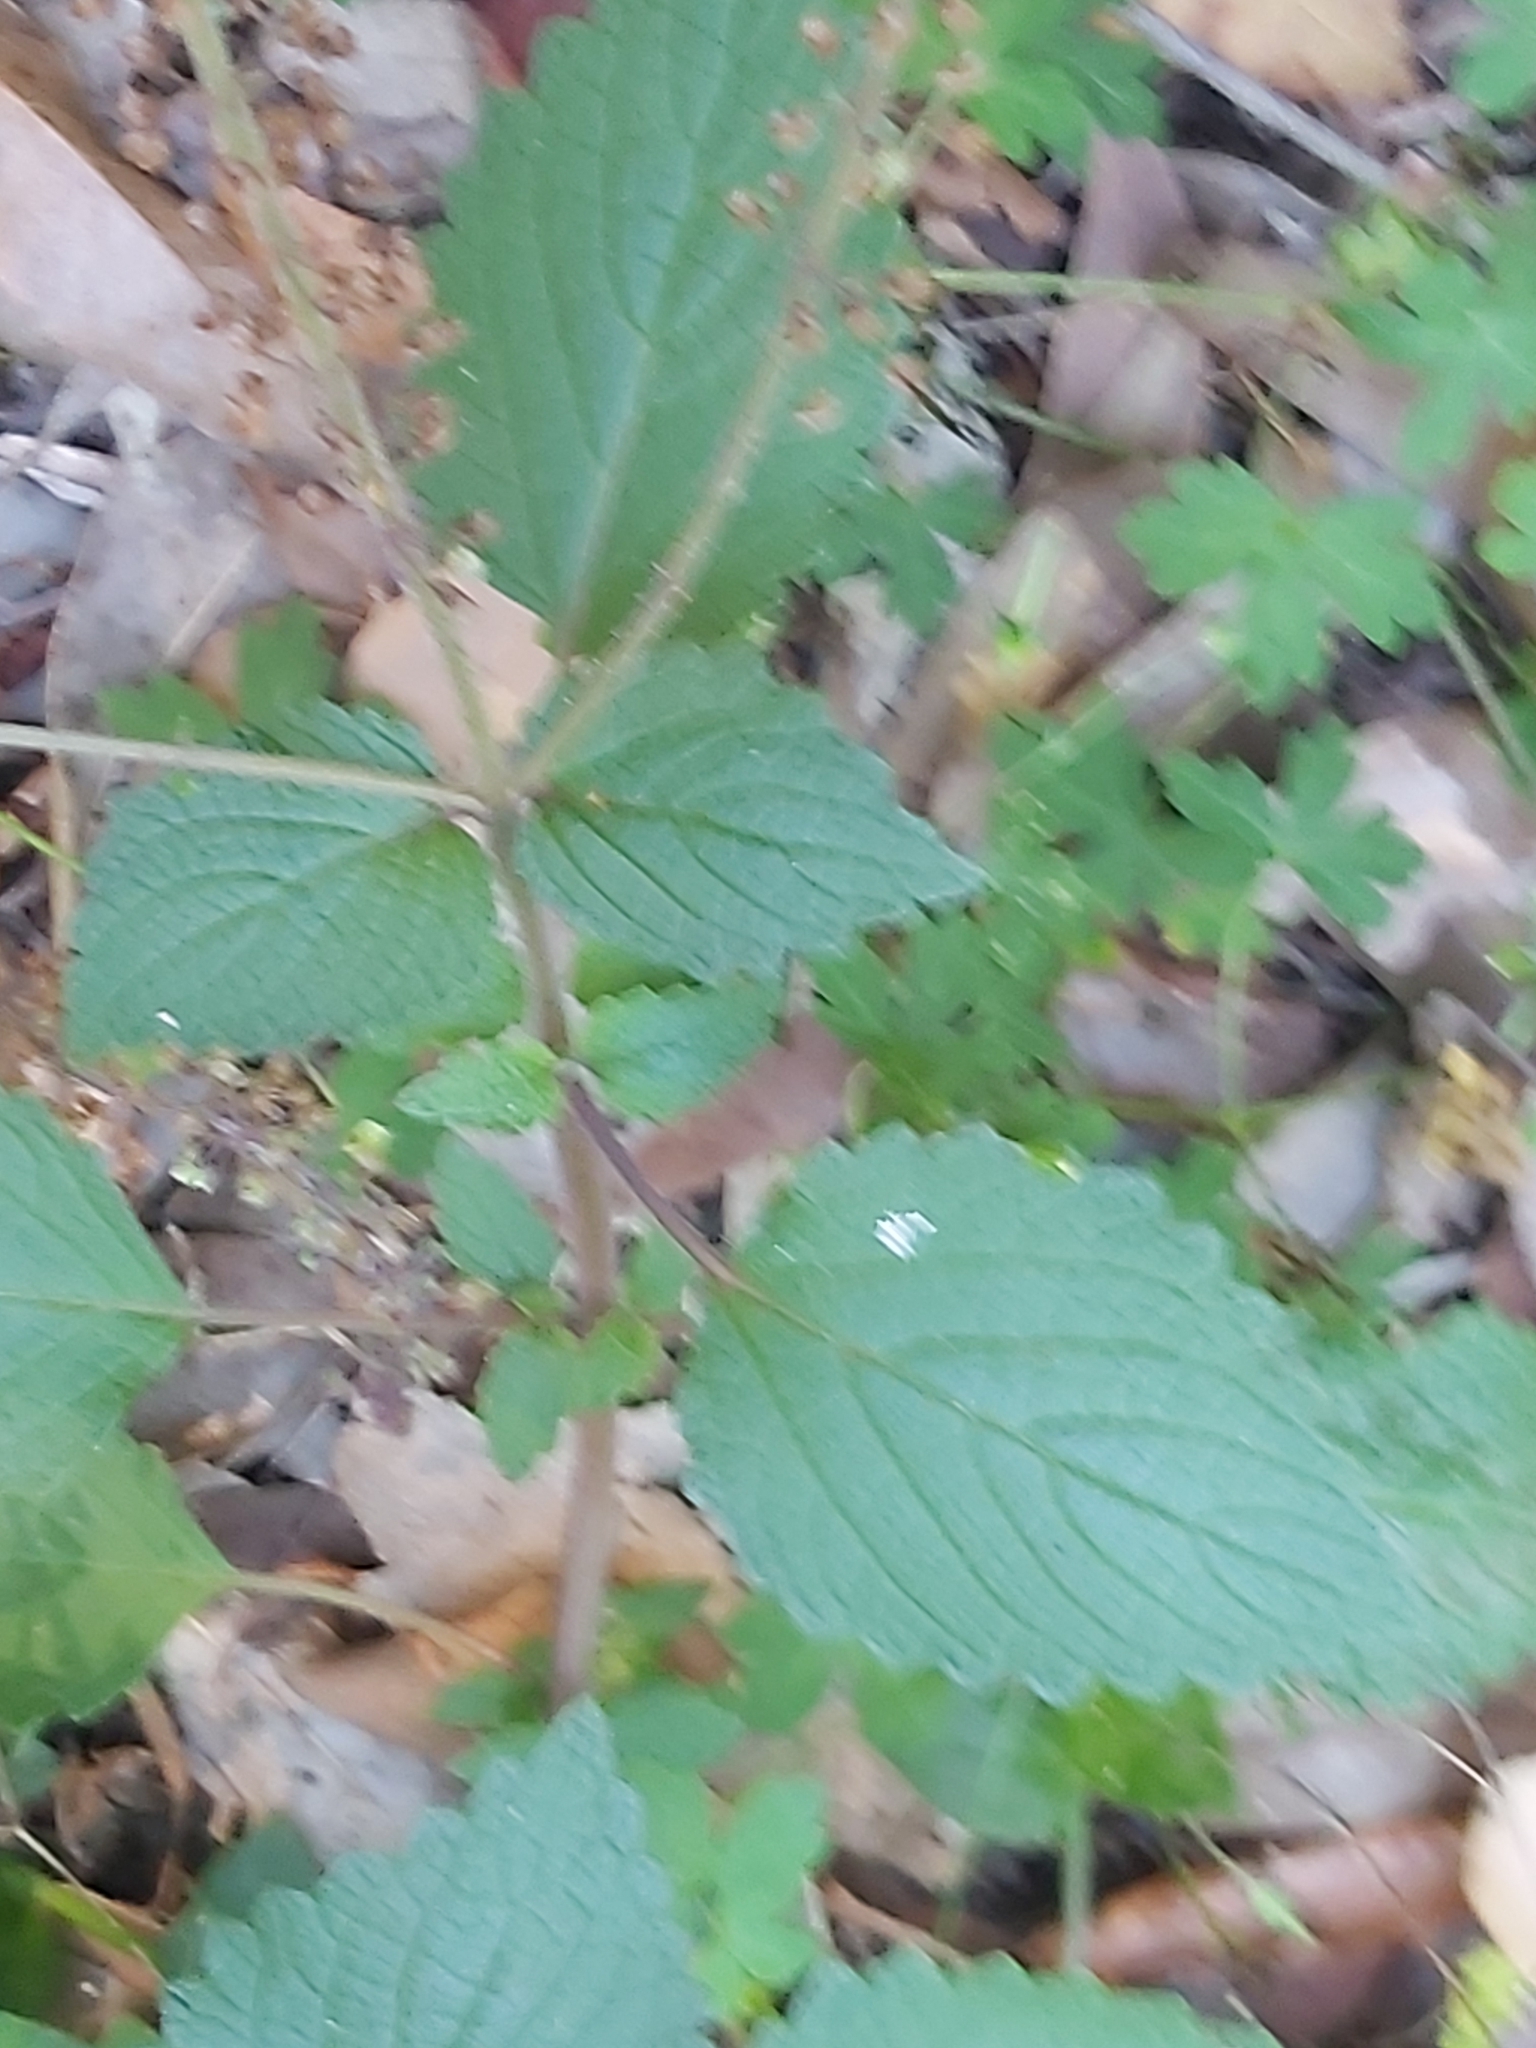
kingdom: Plantae
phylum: Tracheophyta
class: Magnoliopsida
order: Lamiales
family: Lamiaceae
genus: Coleus
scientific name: Coleus australis
